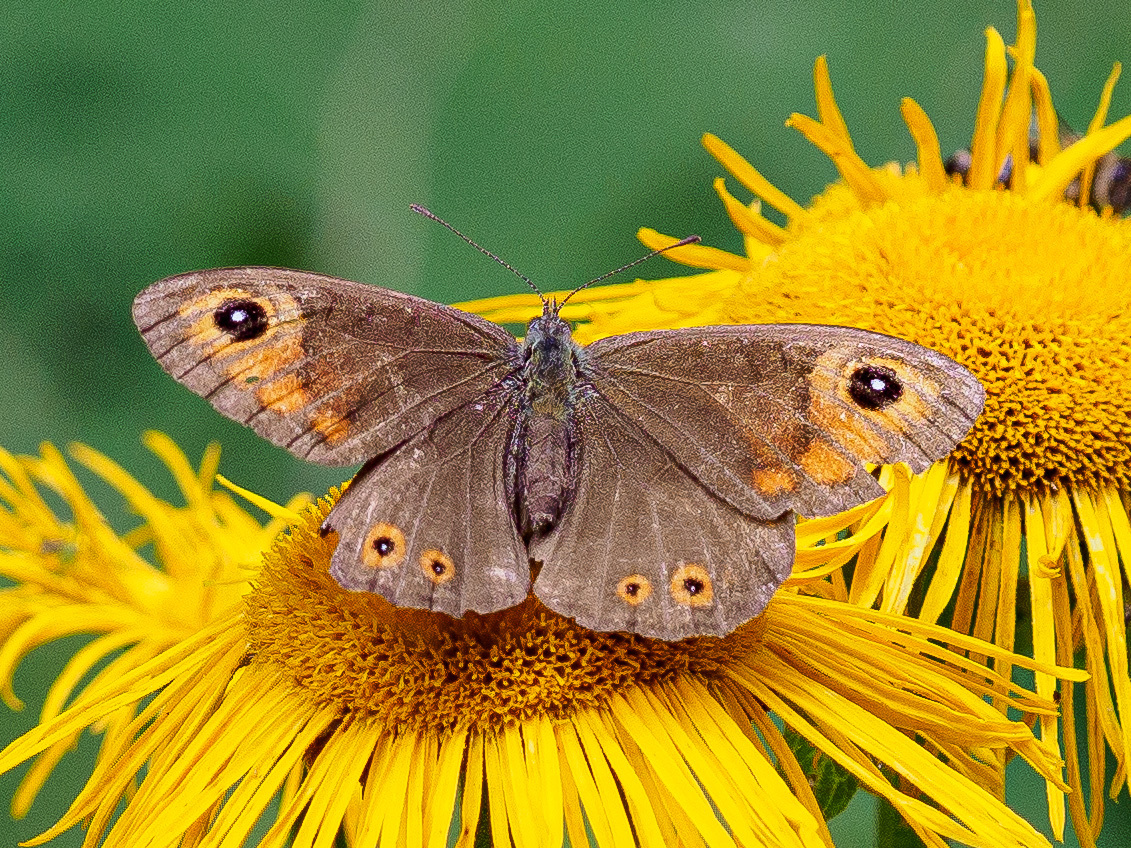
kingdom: Animalia
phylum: Arthropoda
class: Insecta
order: Lepidoptera
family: Nymphalidae
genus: Pararge
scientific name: Pararge Lasiommata maera
